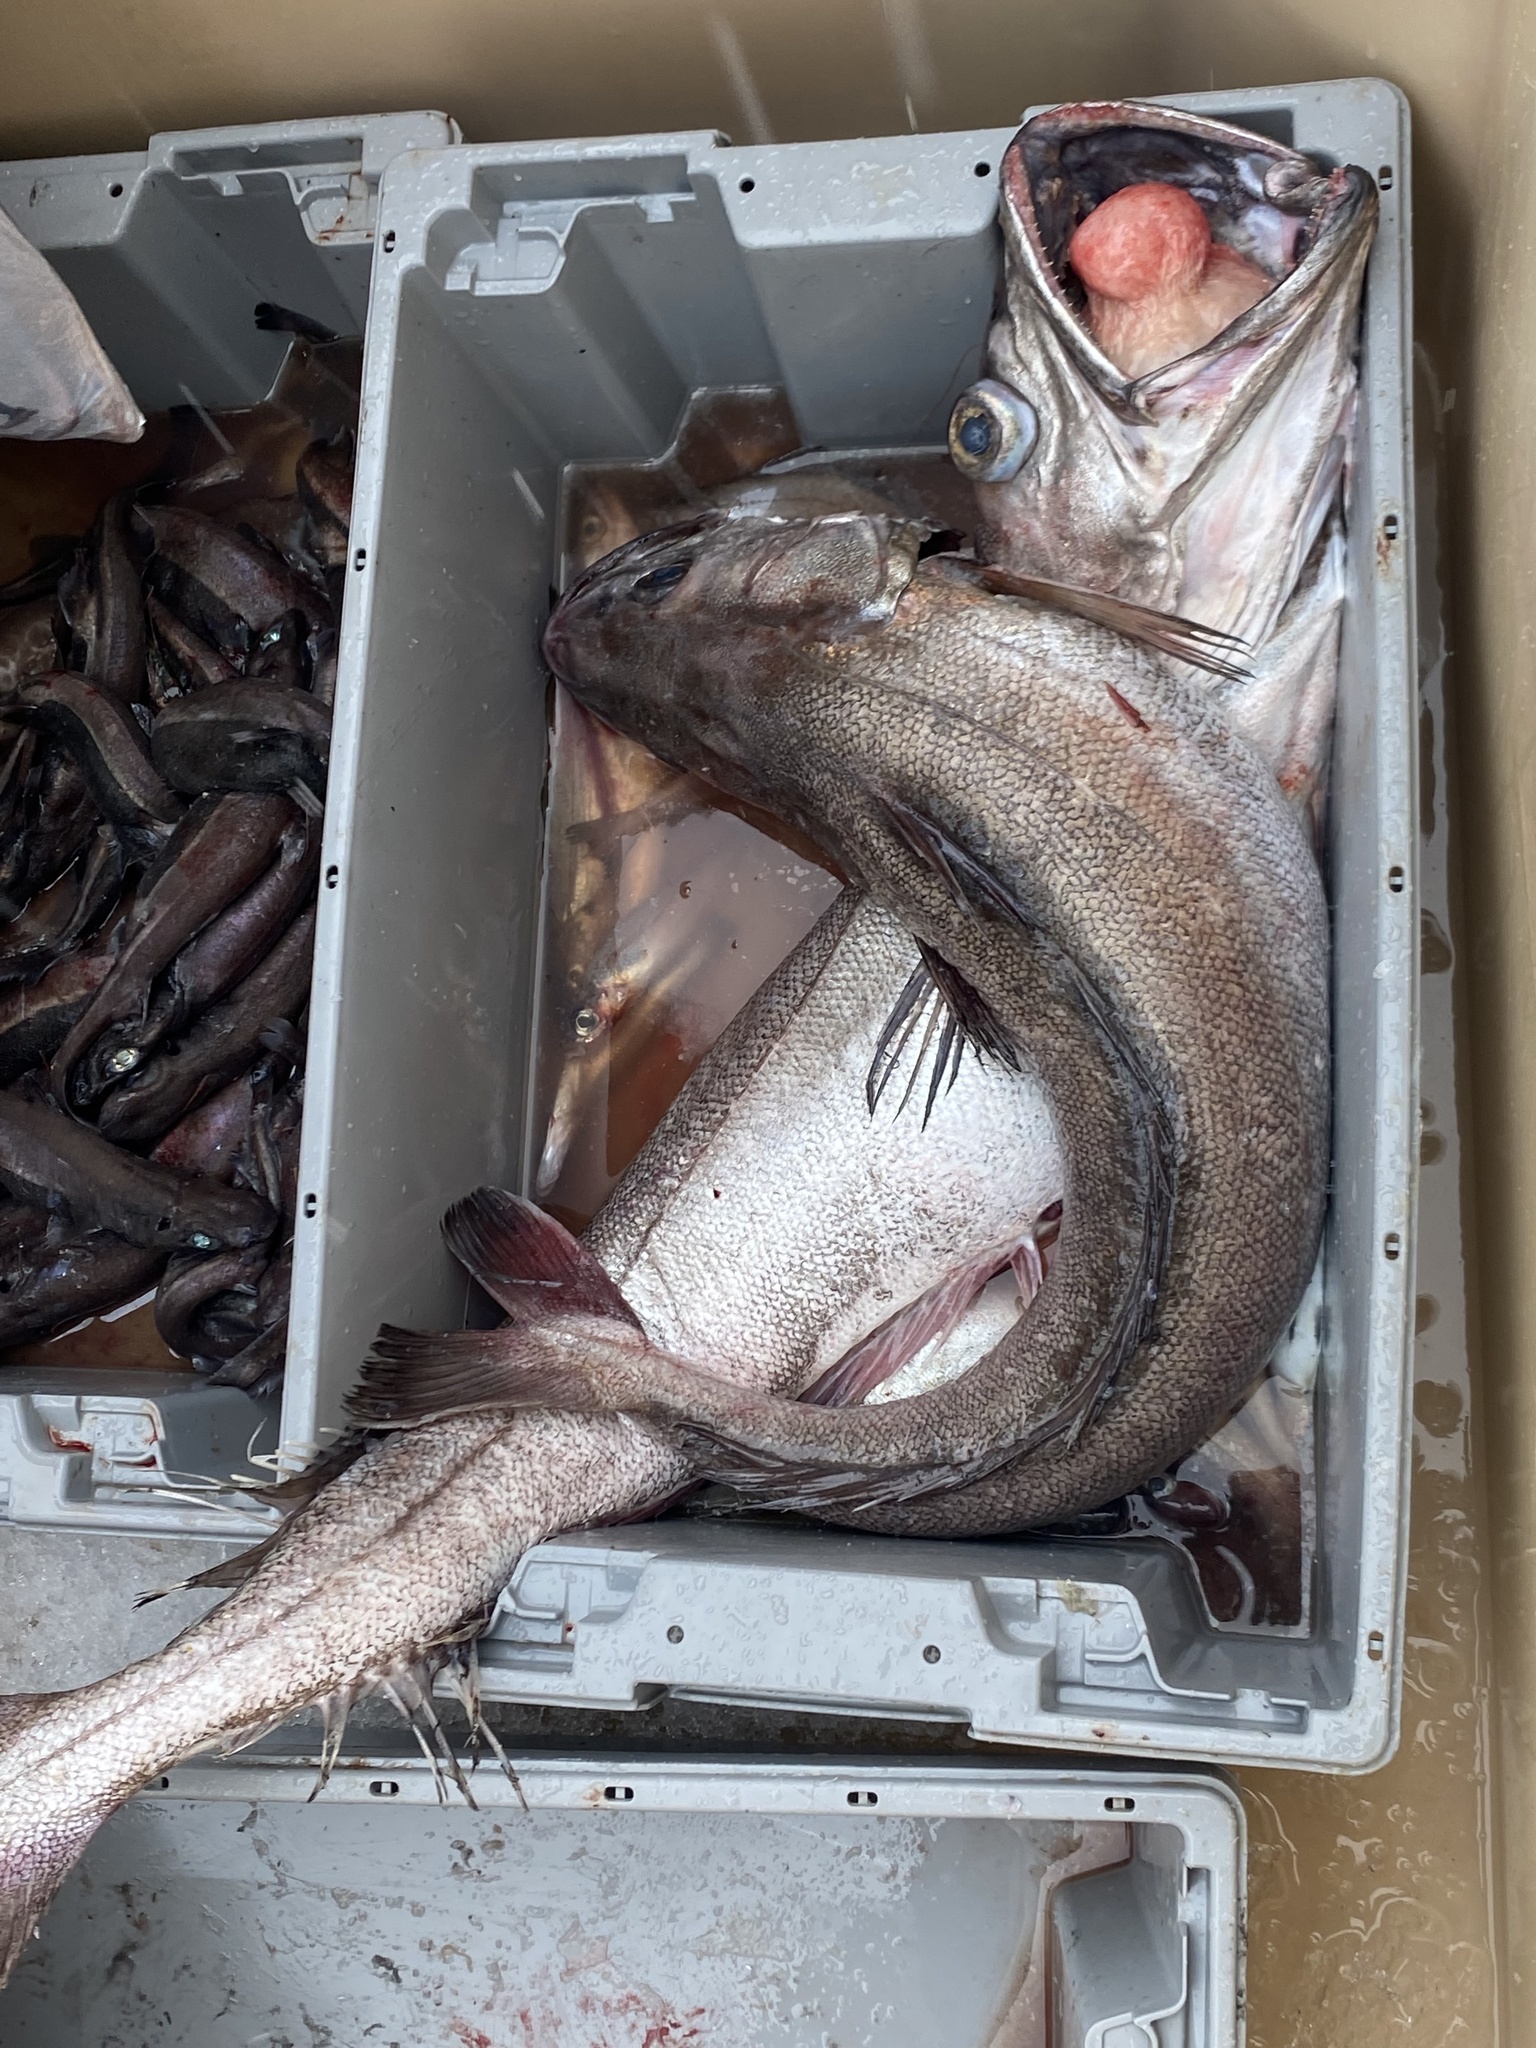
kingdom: Animalia
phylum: Chordata
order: Gadiformes
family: Merlucciidae
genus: Merluccius
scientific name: Merluccius merluccius
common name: European hake
